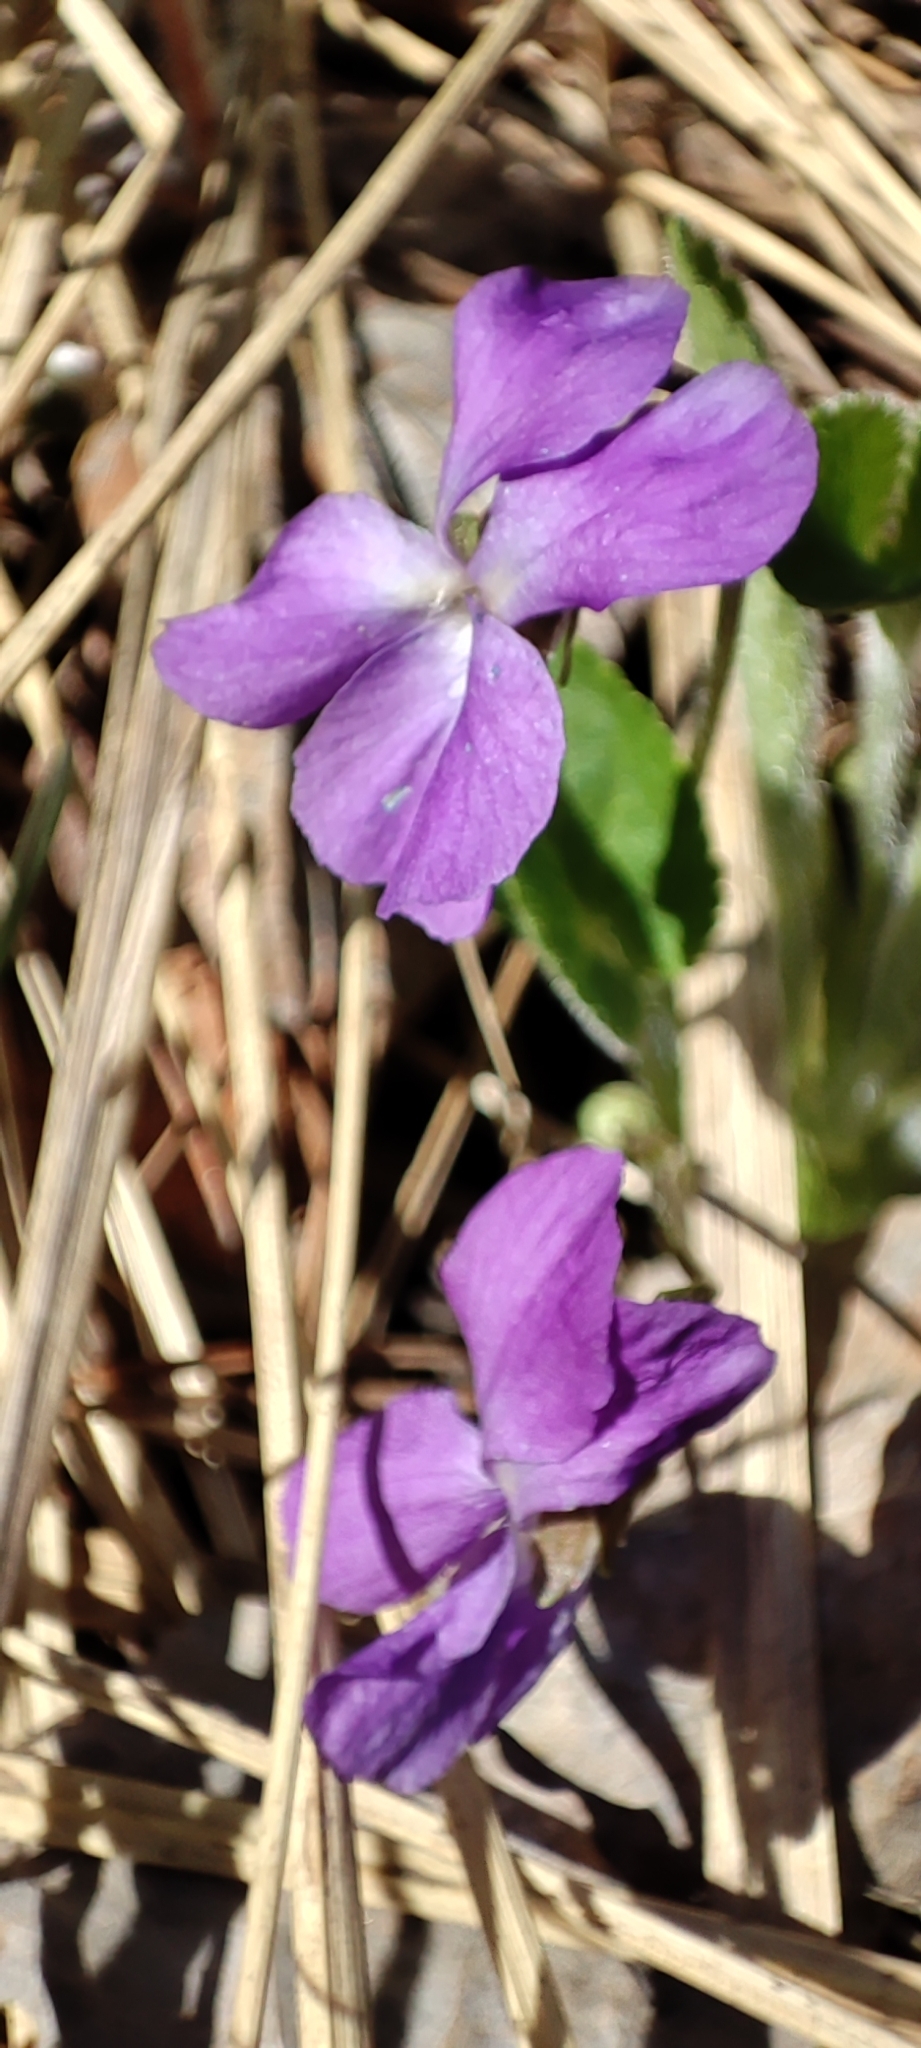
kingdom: Plantae
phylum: Tracheophyta
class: Magnoliopsida
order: Malpighiales
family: Violaceae
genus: Viola
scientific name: Viola hirta
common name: Hairy violet
